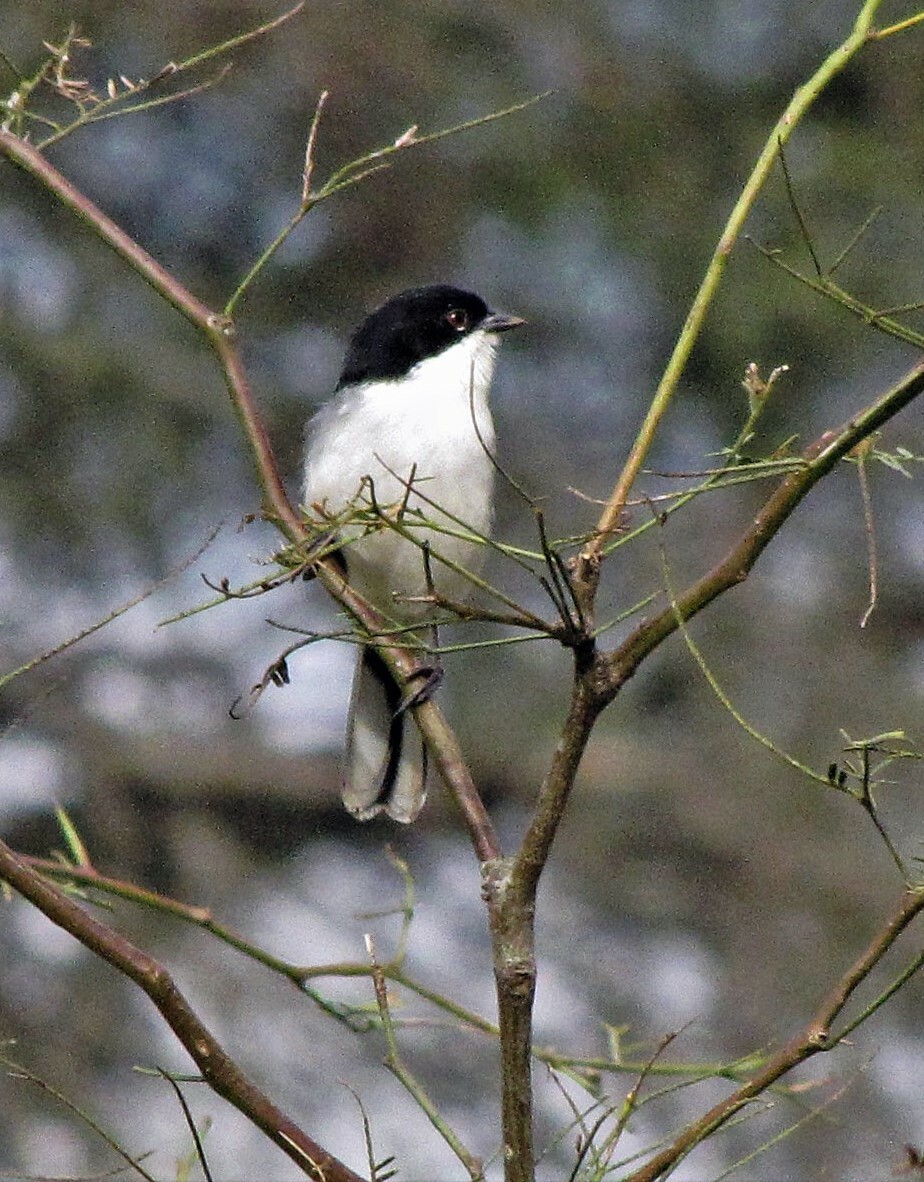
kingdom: Animalia
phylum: Chordata
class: Aves
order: Passeriformes
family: Thraupidae
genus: Microspingus
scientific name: Microspingus melanoleucus
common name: Black-capped warbling-finch
